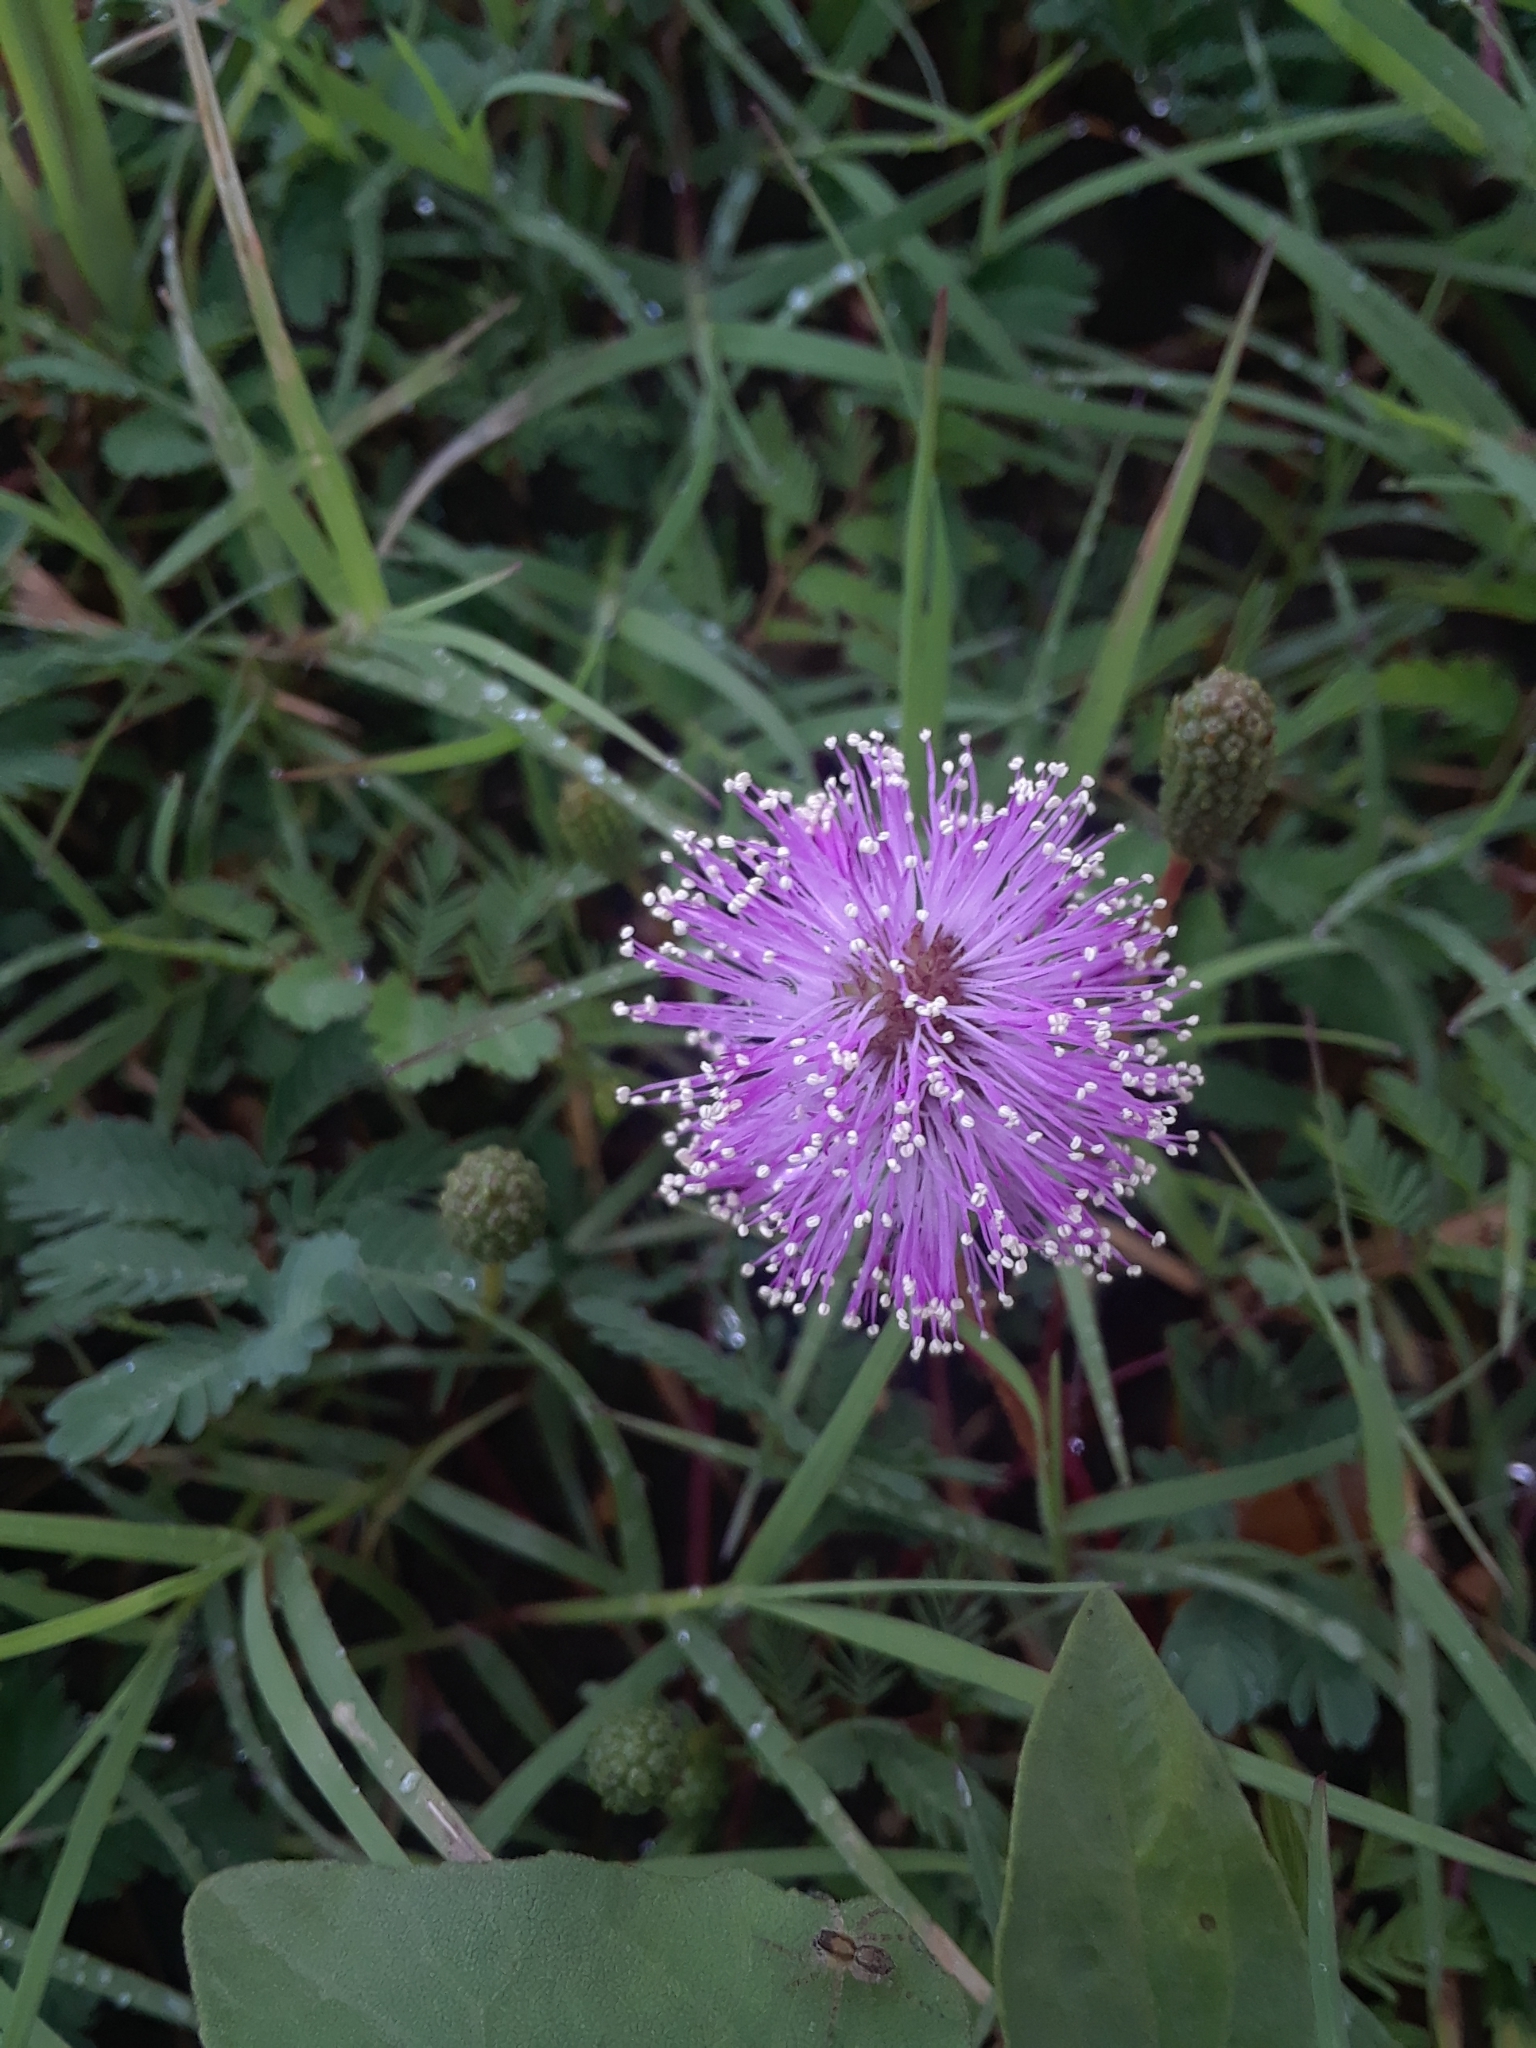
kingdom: Plantae
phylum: Tracheophyta
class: Magnoliopsida
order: Fabales
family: Fabaceae
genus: Mimosa
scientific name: Mimosa strigillosa
